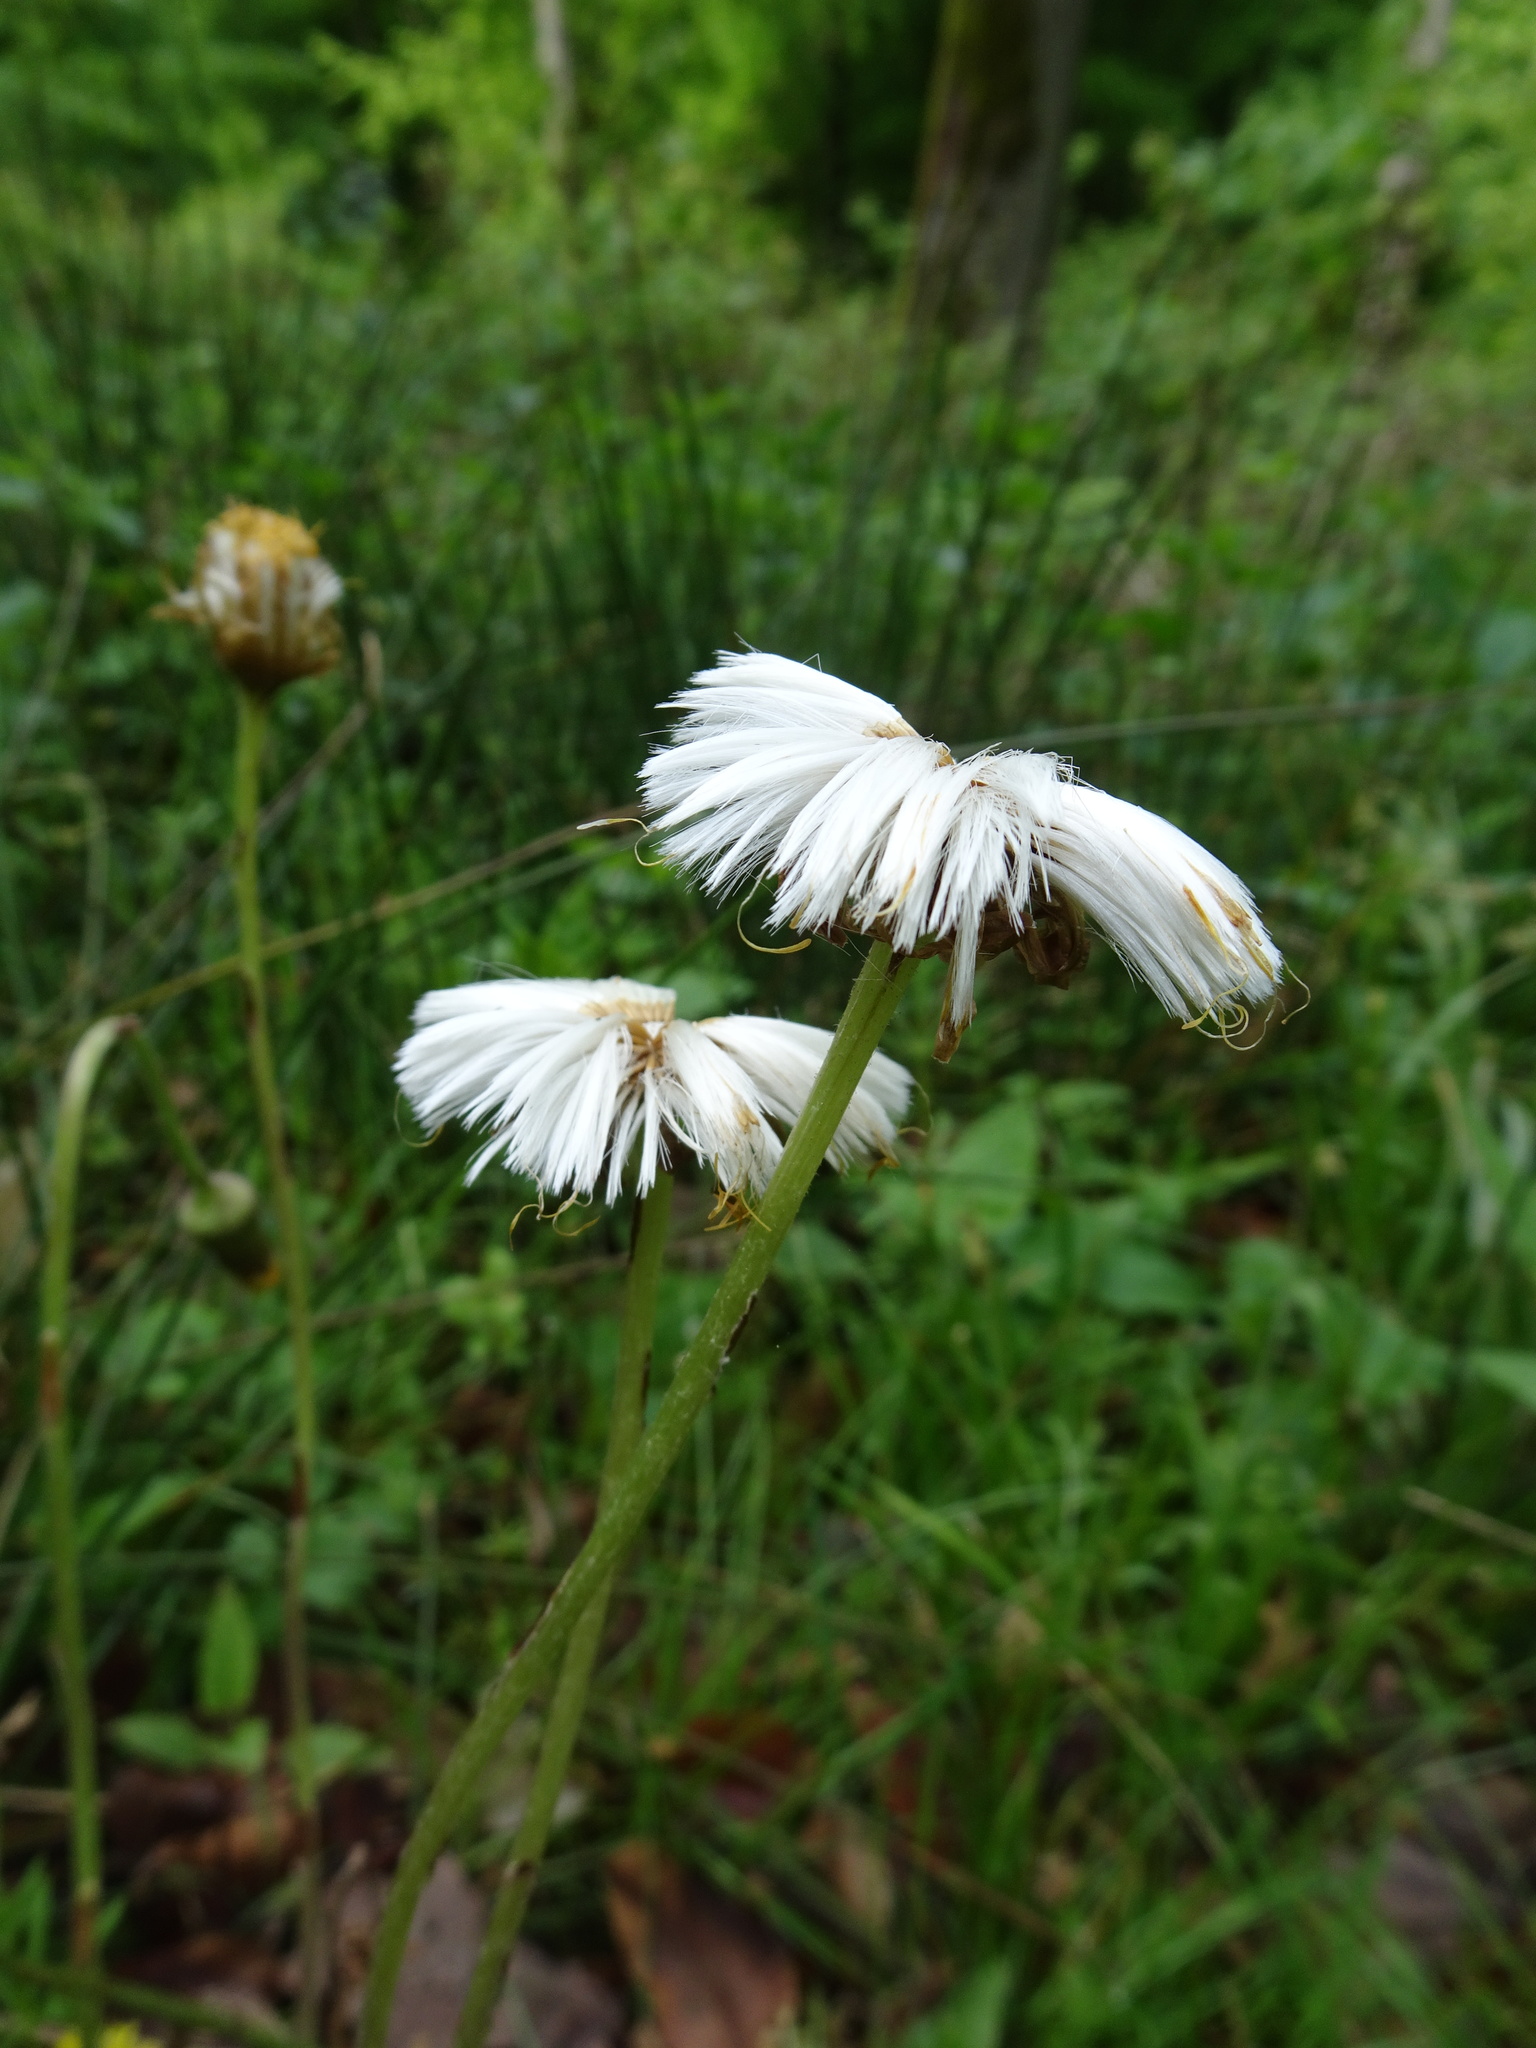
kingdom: Plantae
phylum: Tracheophyta
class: Magnoliopsida
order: Asterales
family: Asteraceae
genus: Tussilago
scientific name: Tussilago farfara
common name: Coltsfoot
